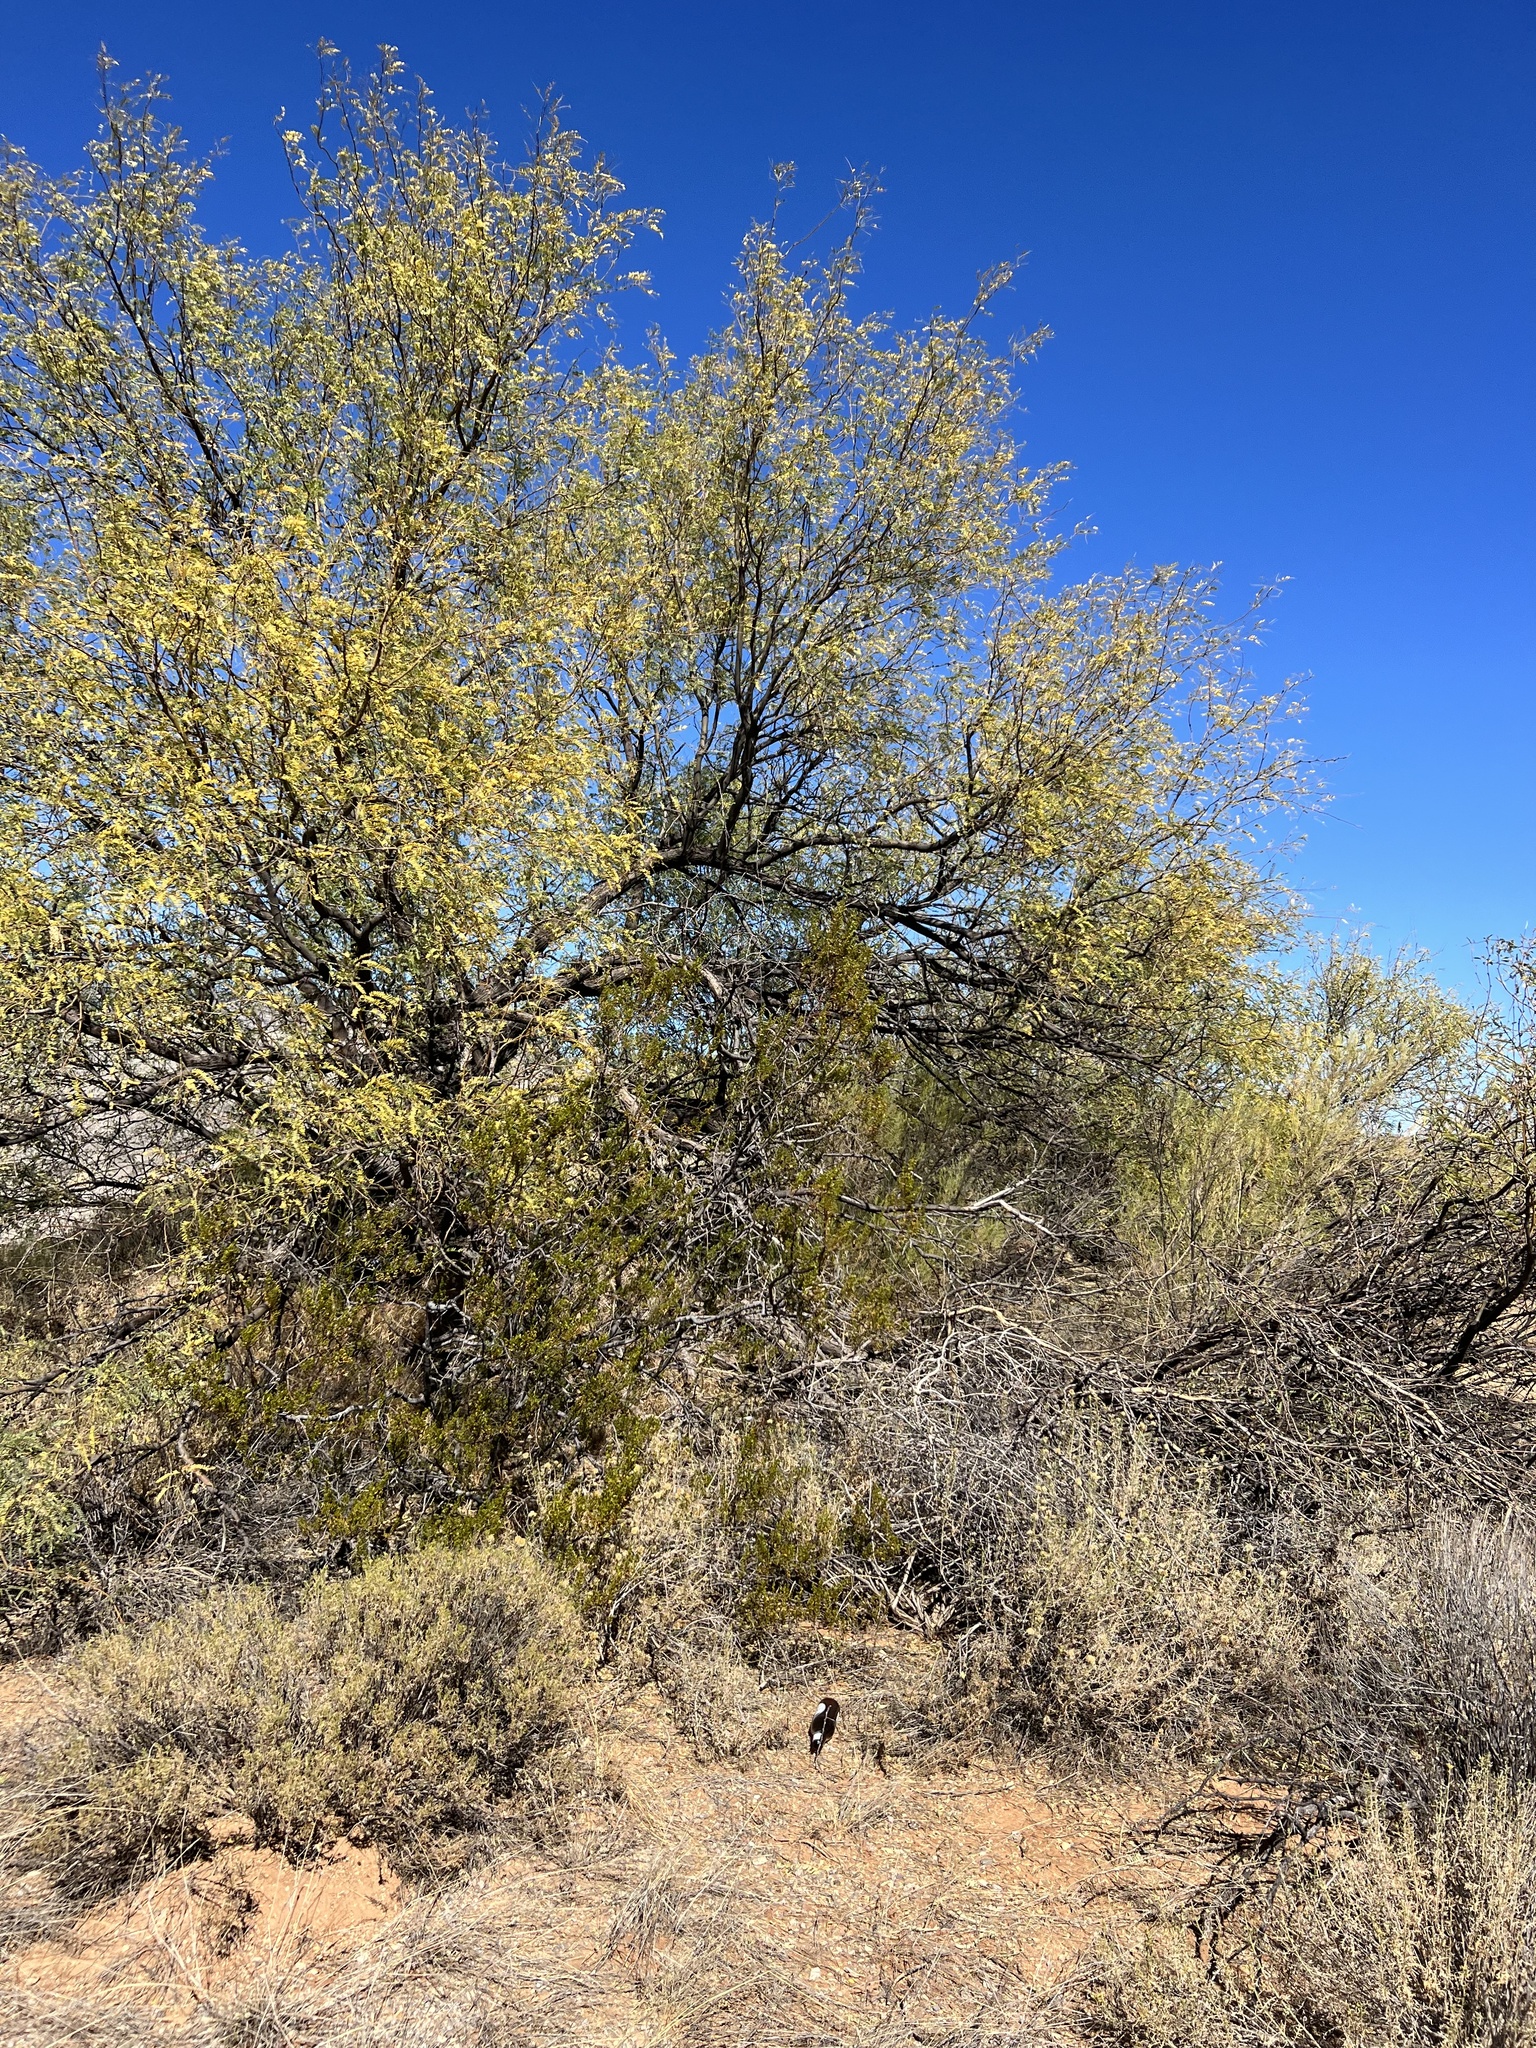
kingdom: Plantae
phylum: Tracheophyta
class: Magnoliopsida
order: Zygophyllales
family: Zygophyllaceae
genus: Larrea
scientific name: Larrea tridentata
